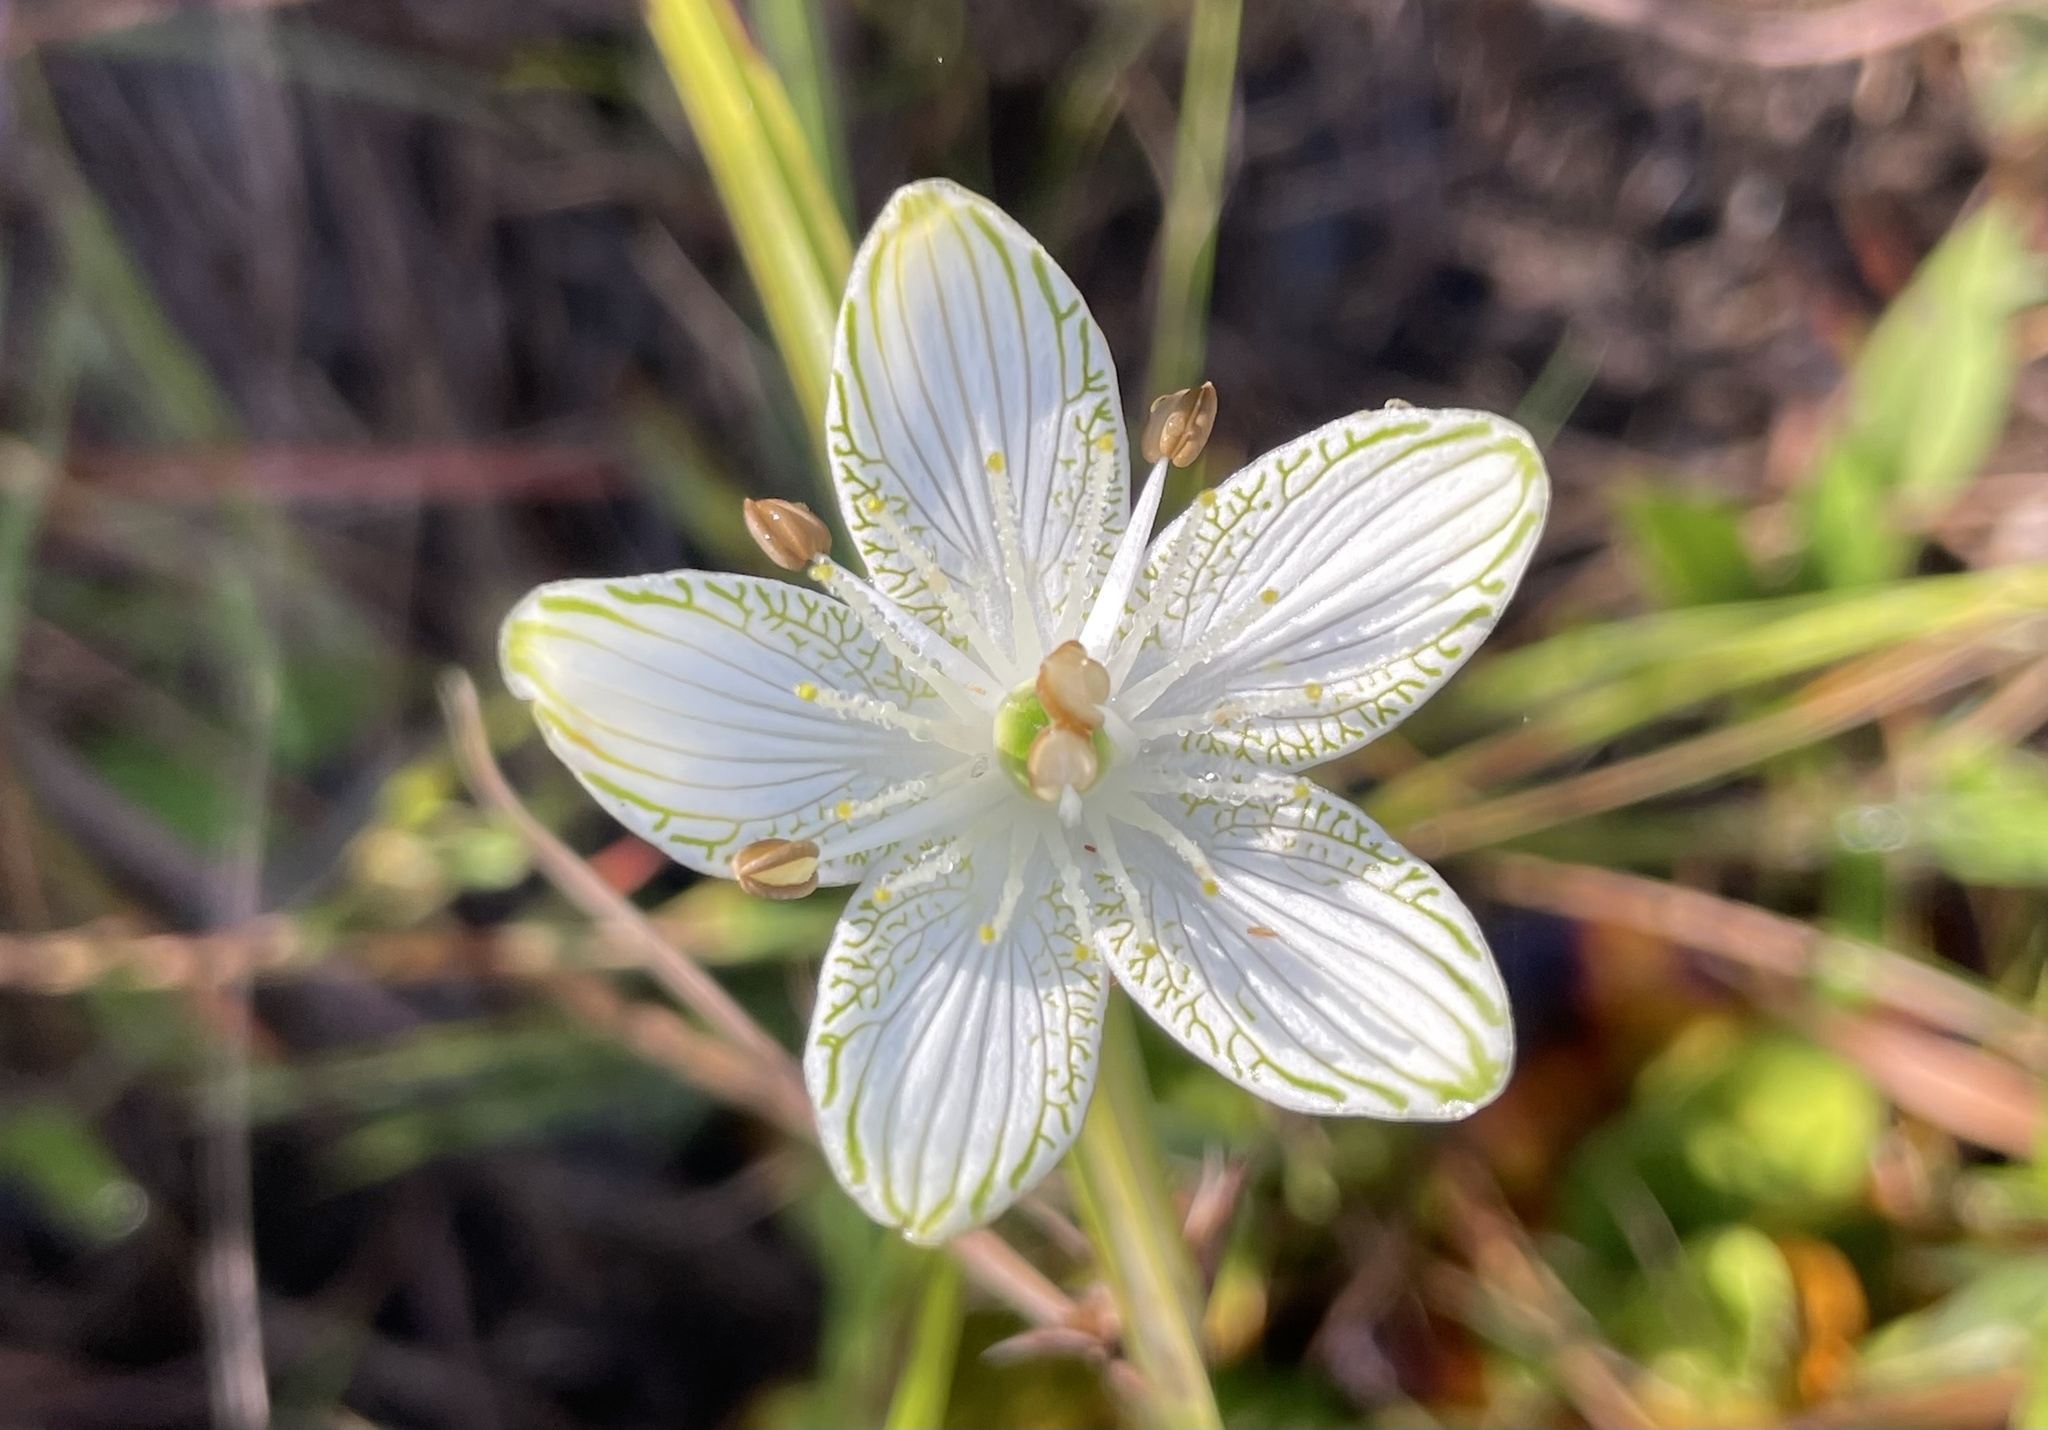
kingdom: Plantae
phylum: Tracheophyta
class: Magnoliopsida
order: Celastrales
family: Parnassiaceae
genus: Parnassia
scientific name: Parnassia grandifolia
